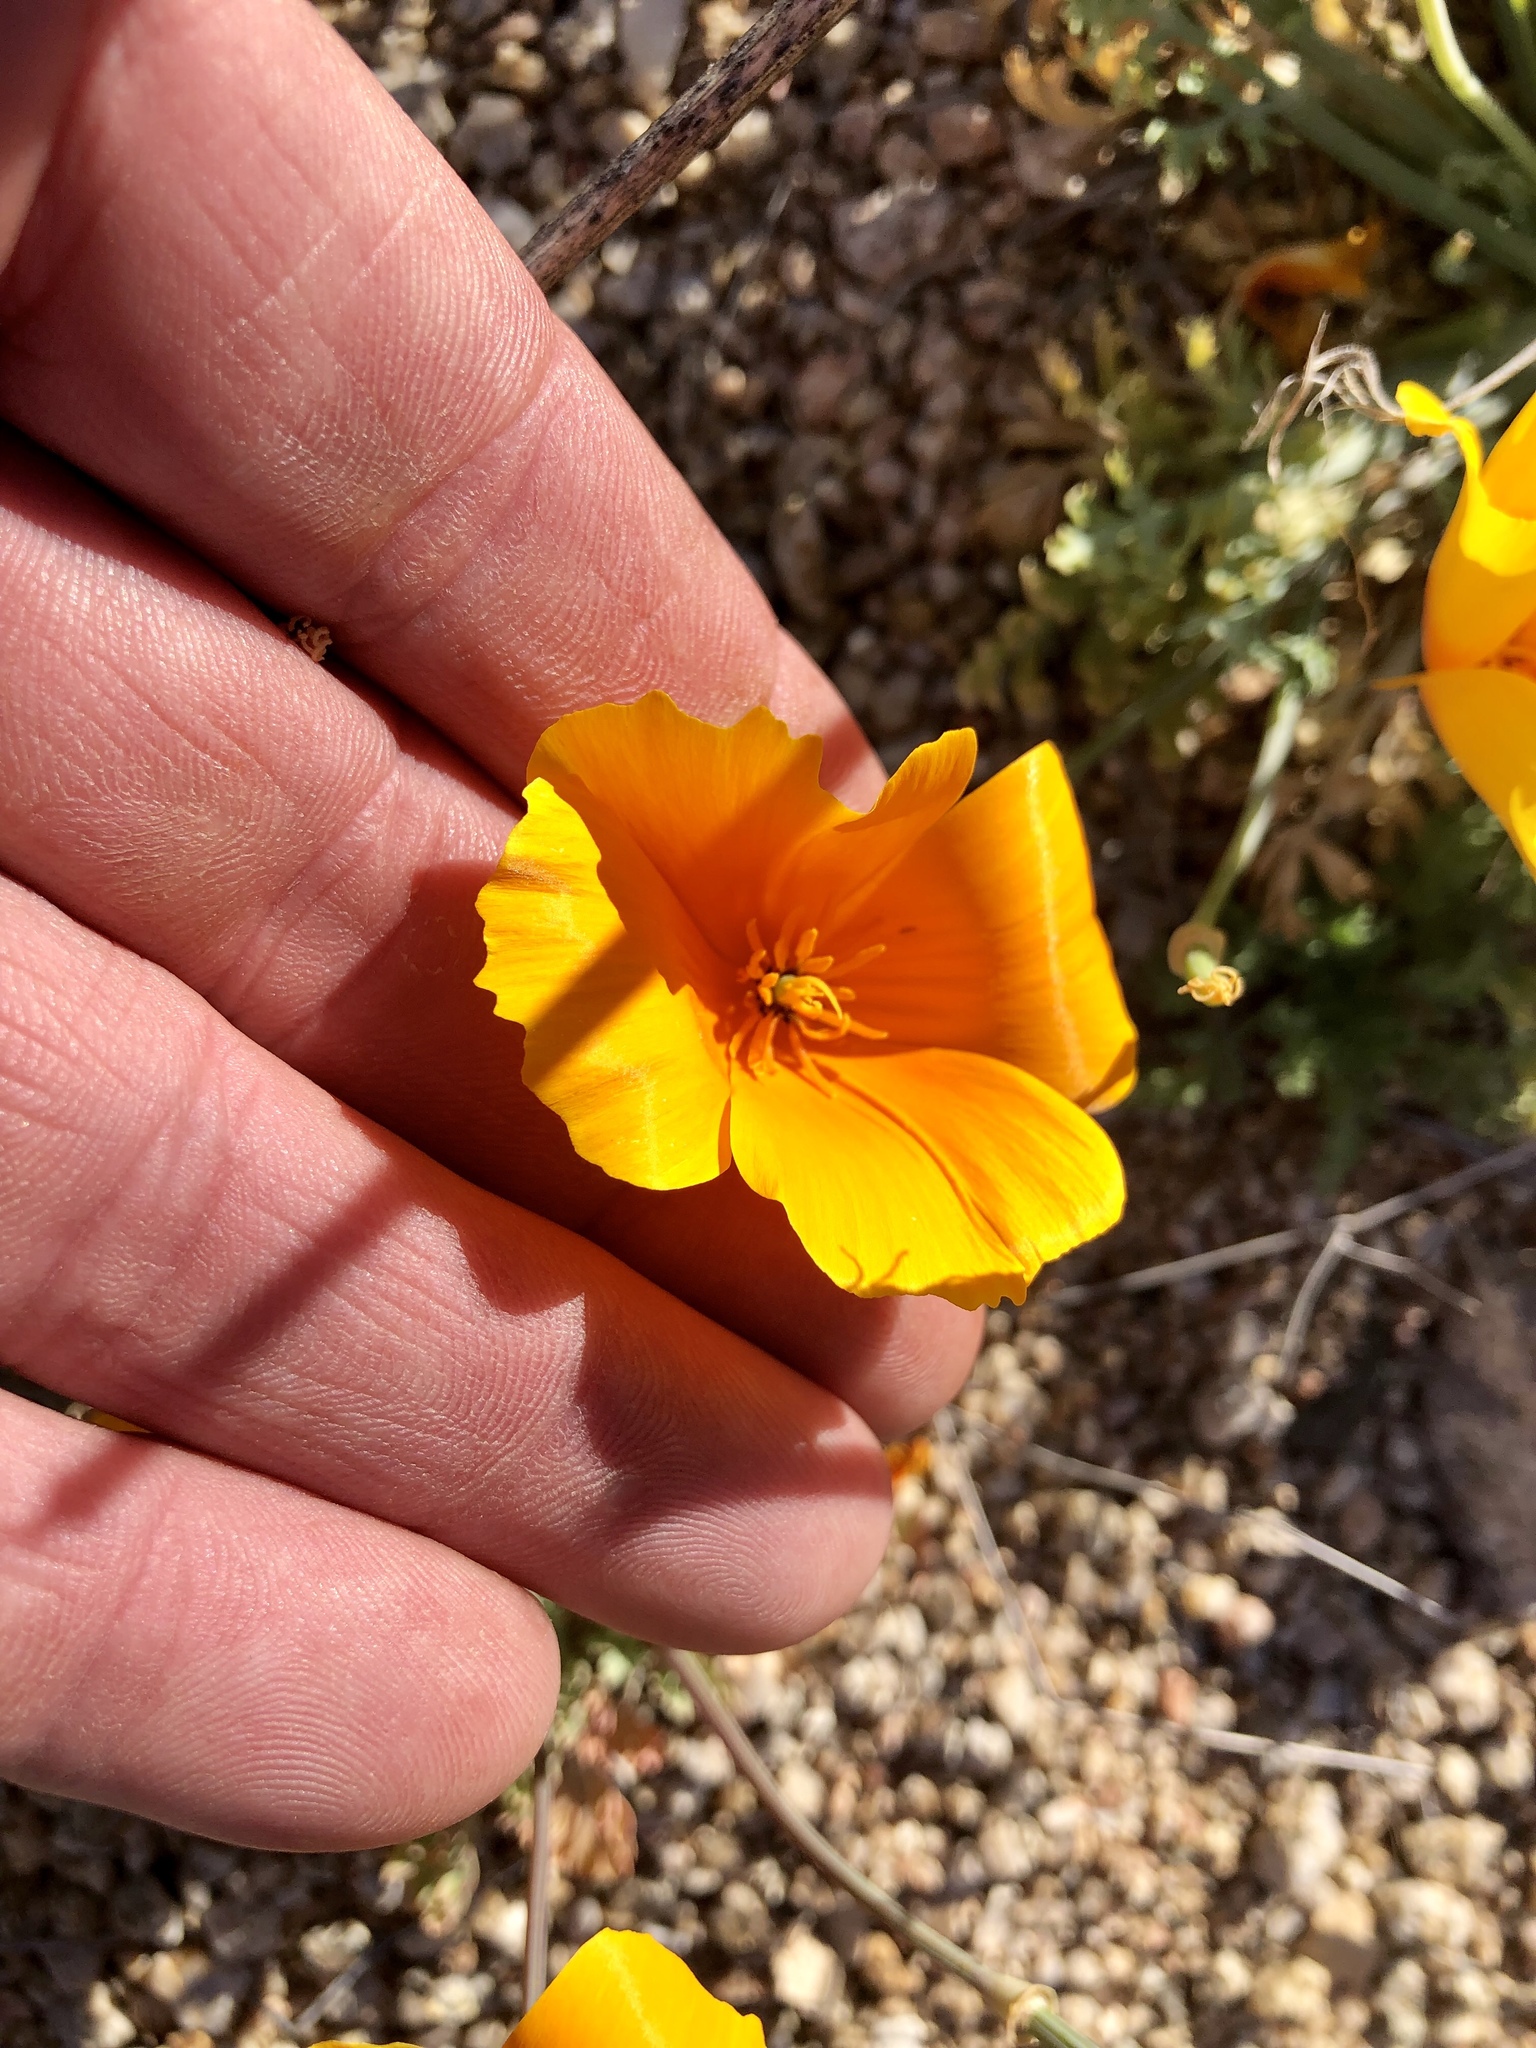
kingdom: Plantae
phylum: Tracheophyta
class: Magnoliopsida
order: Ranunculales
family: Papaveraceae
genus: Eschscholzia
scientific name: Eschscholzia californica
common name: California poppy
